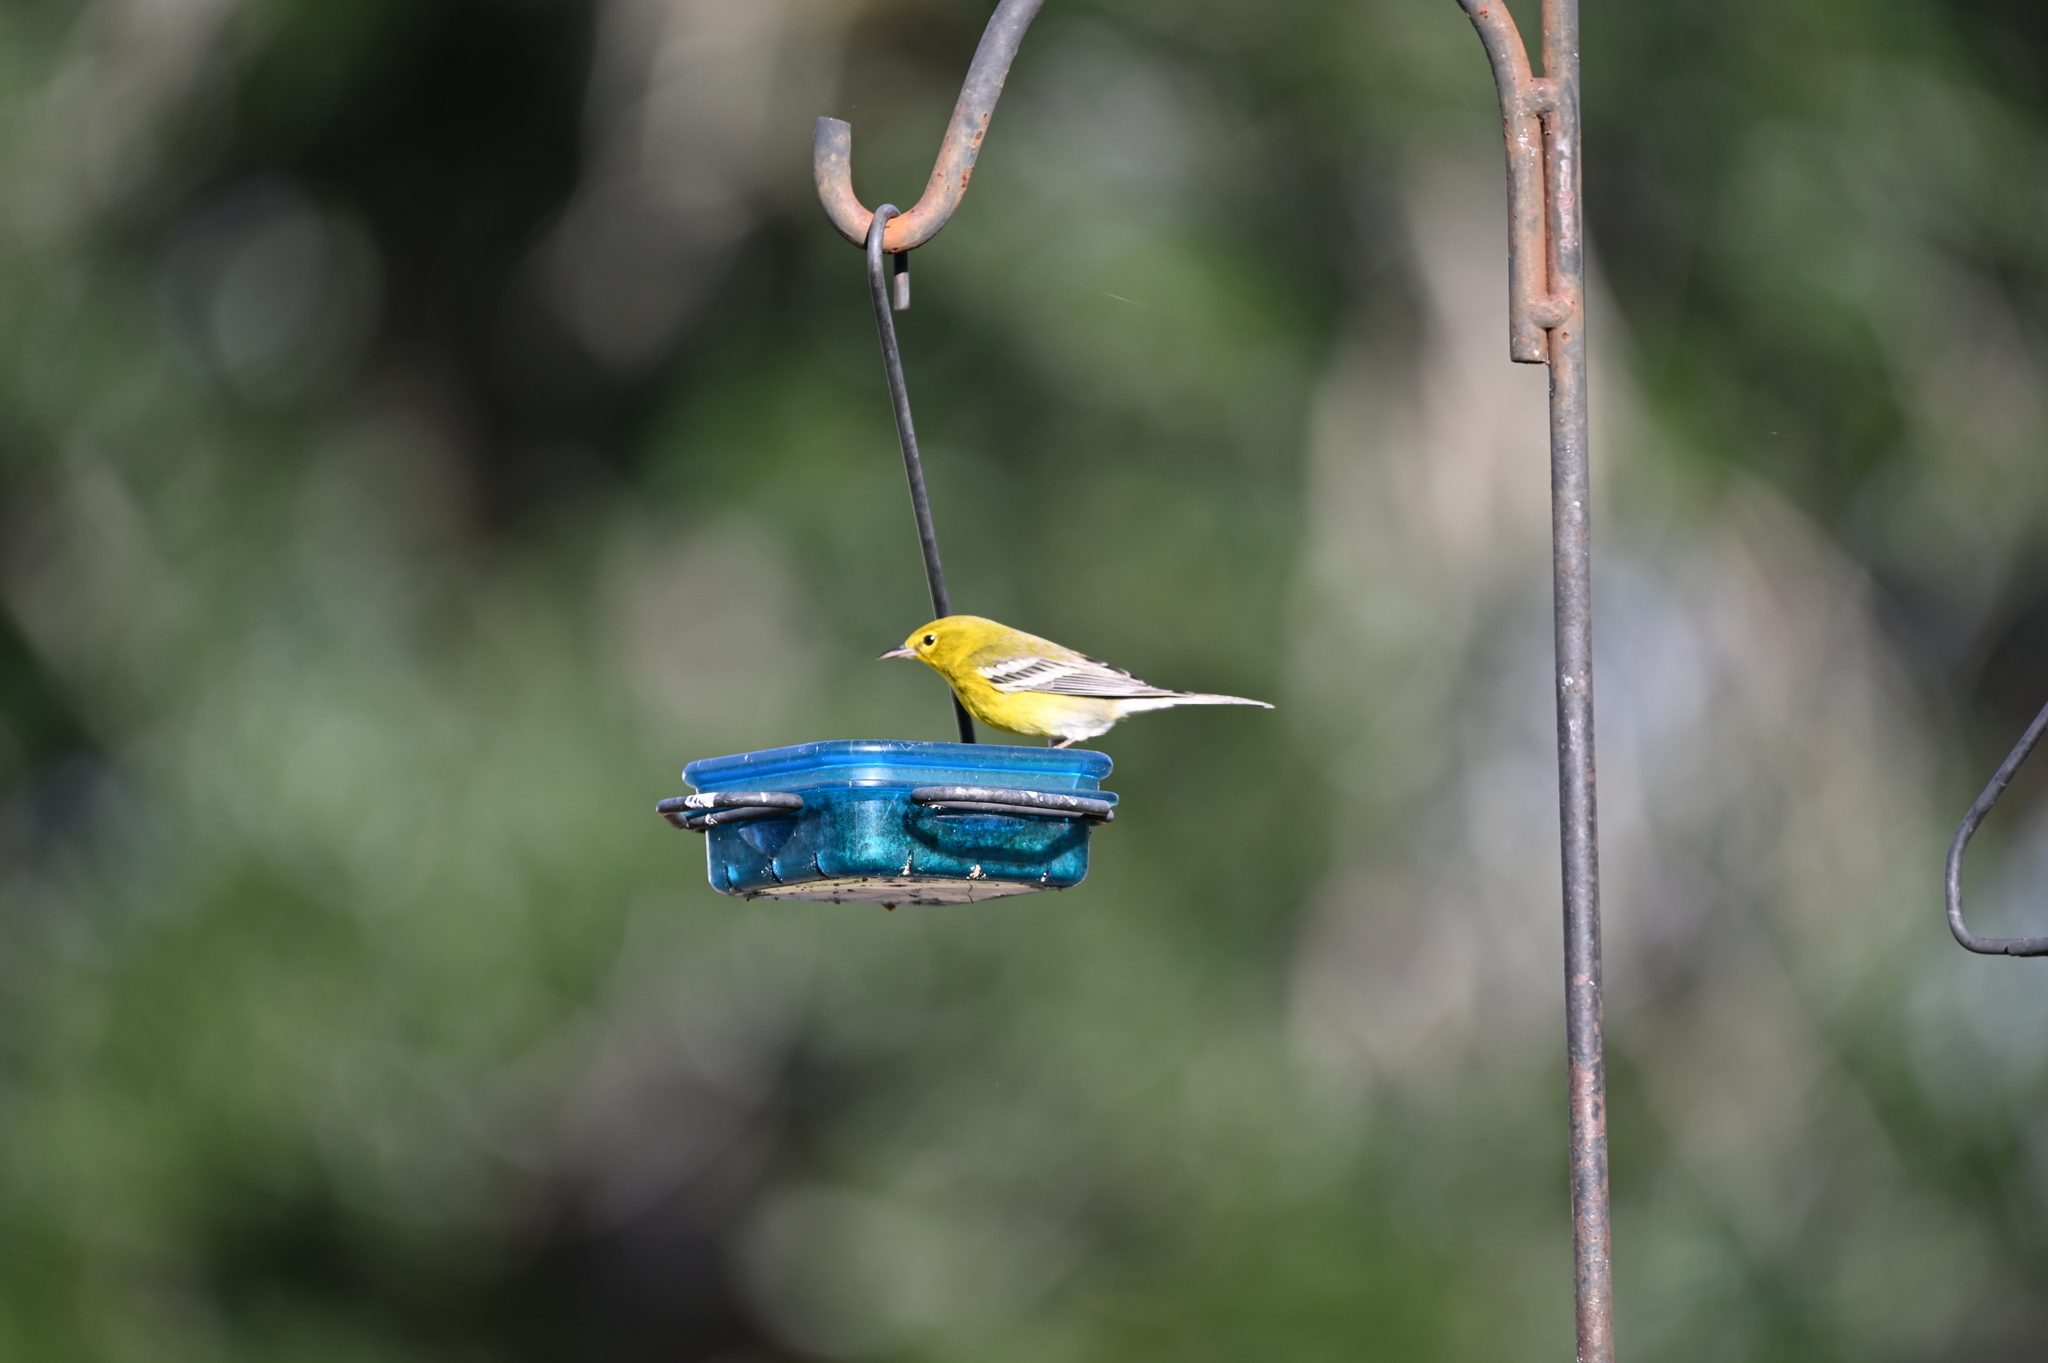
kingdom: Animalia
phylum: Chordata
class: Aves
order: Passeriformes
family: Parulidae
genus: Setophaga
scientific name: Setophaga pinus
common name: Pine warbler
